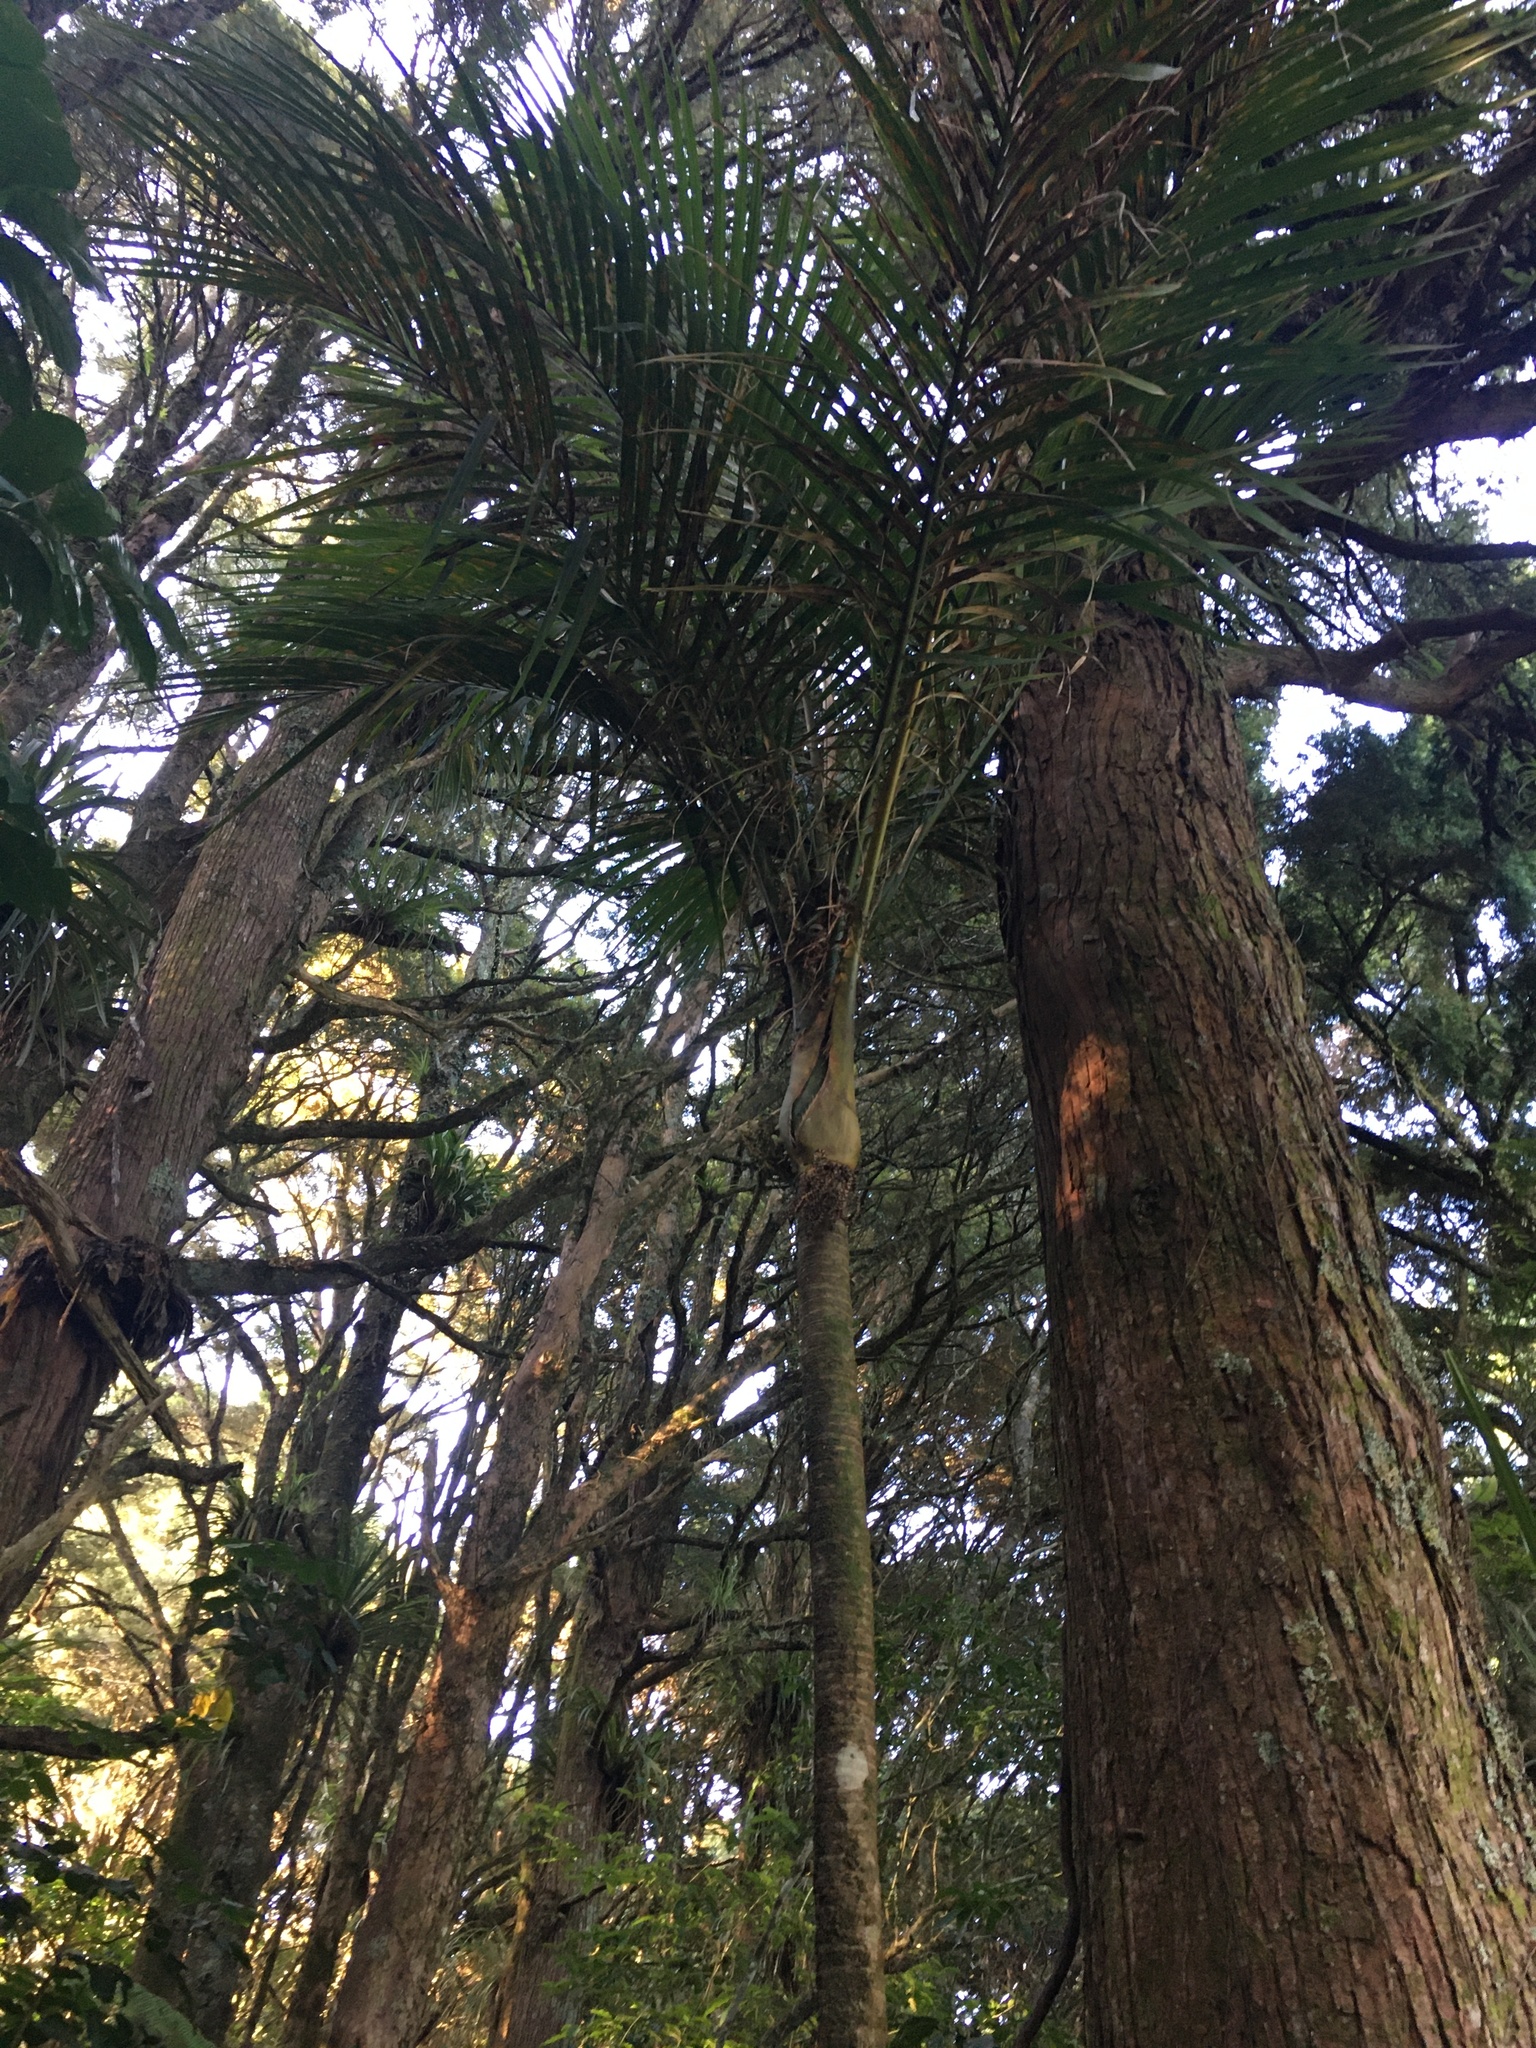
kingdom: Plantae
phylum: Tracheophyta
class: Liliopsida
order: Arecales
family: Arecaceae
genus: Rhopalostylis
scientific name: Rhopalostylis sapida
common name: Feather-duster palm
